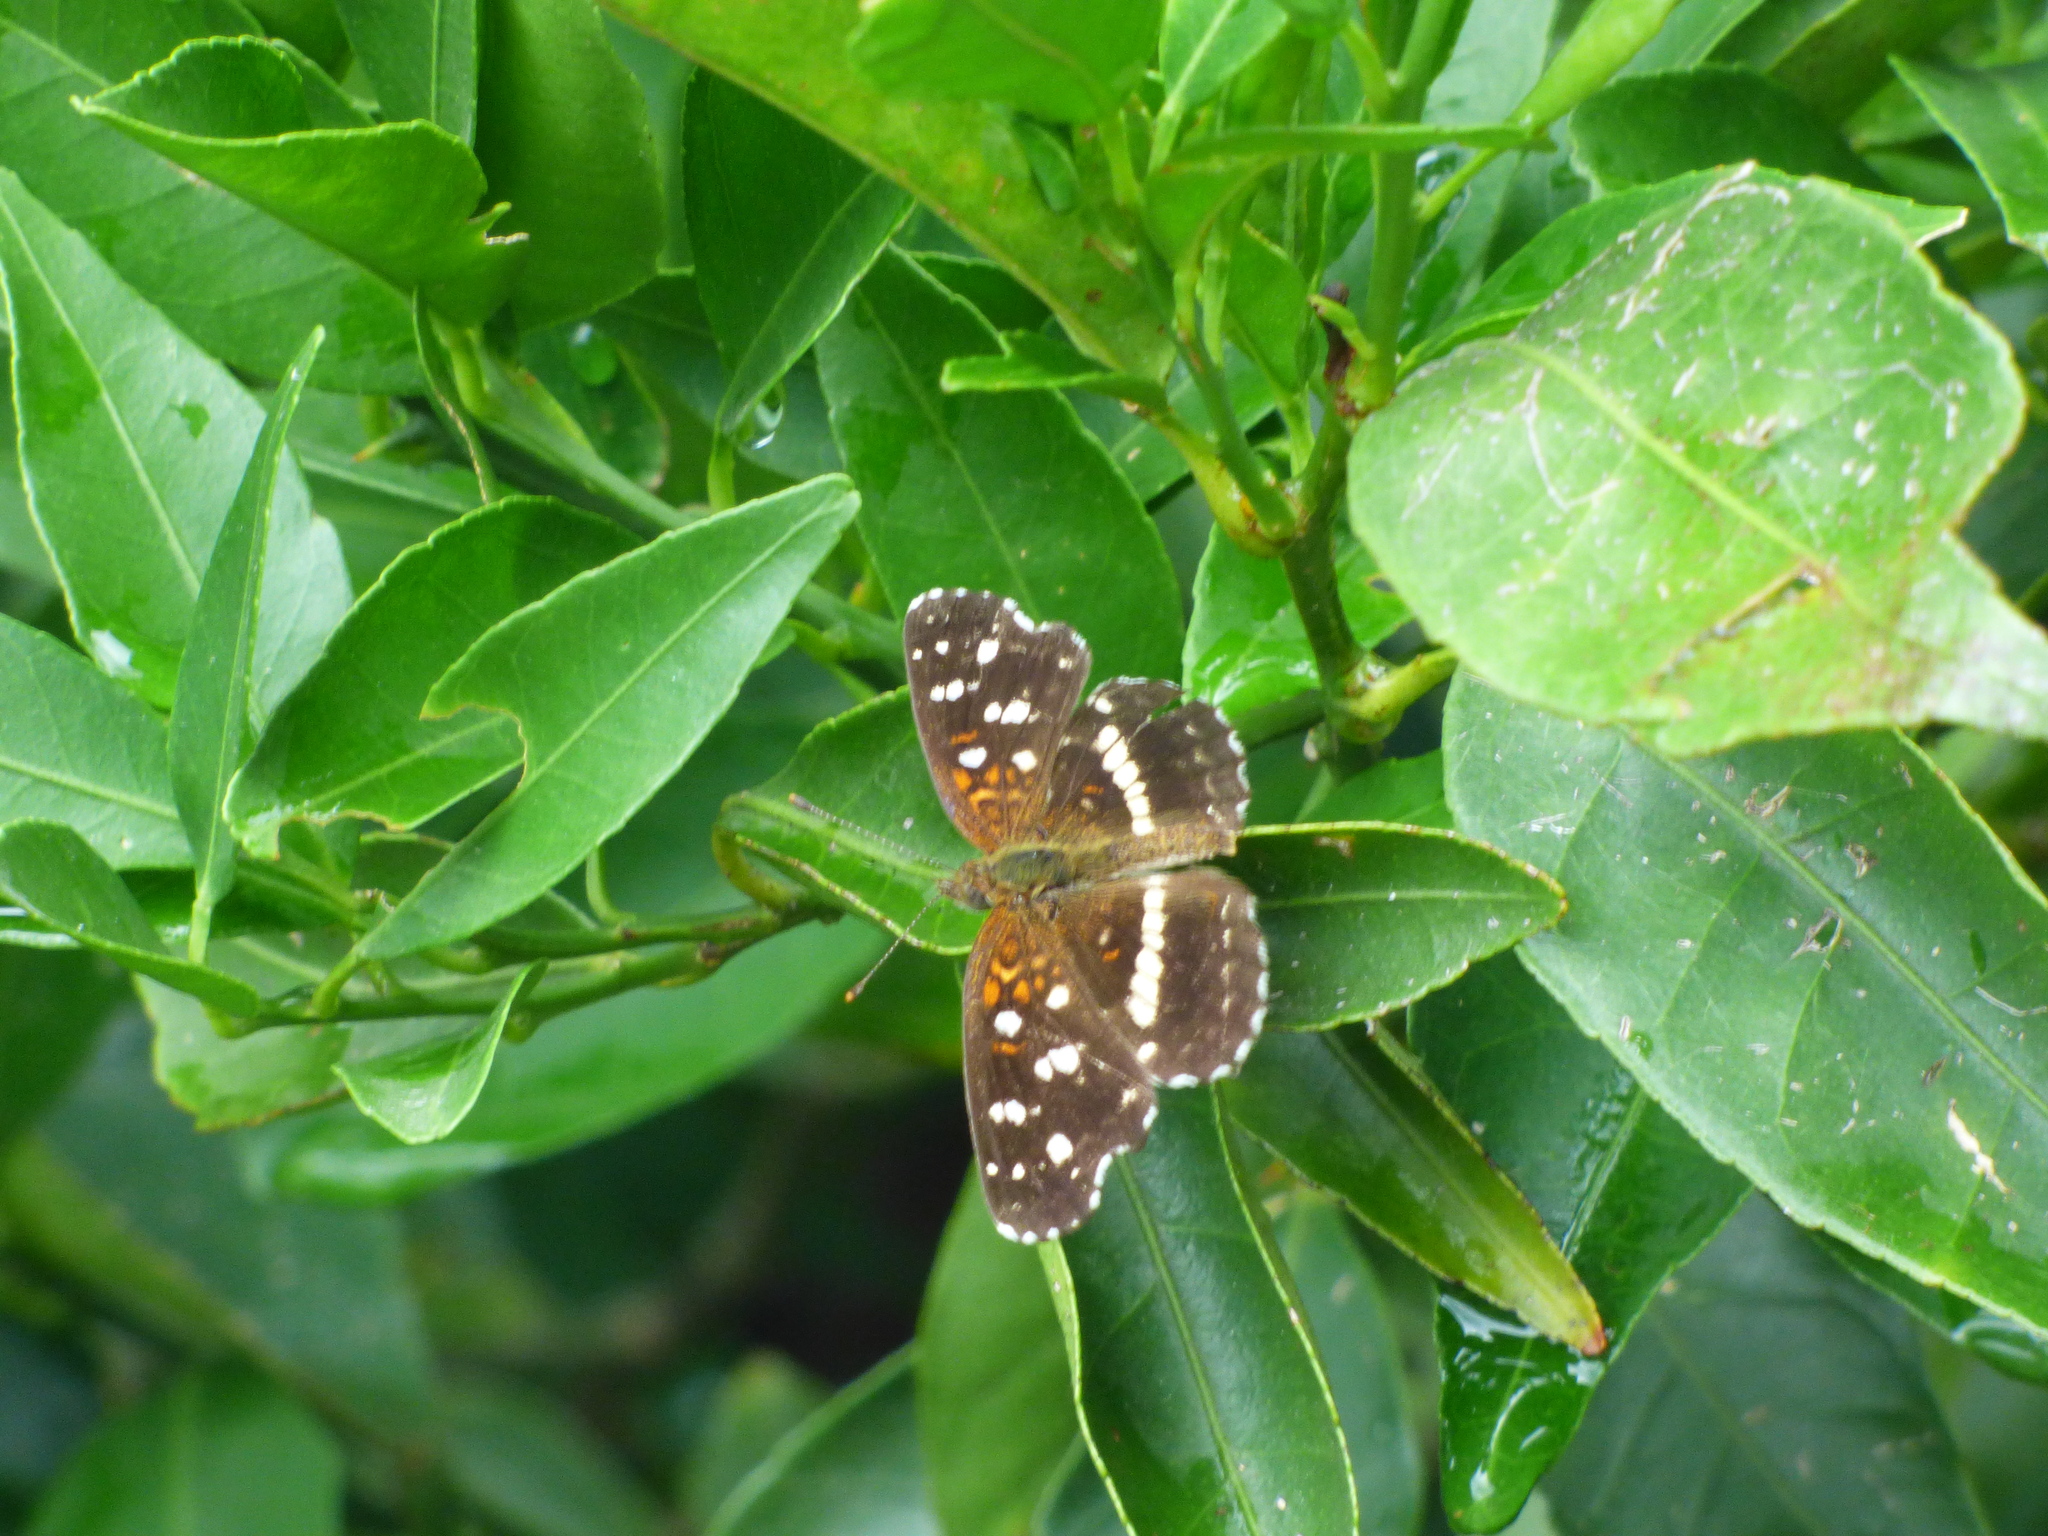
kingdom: Animalia
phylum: Arthropoda
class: Insecta
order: Lepidoptera
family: Nymphalidae
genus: Ortilia
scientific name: Ortilia ithra
